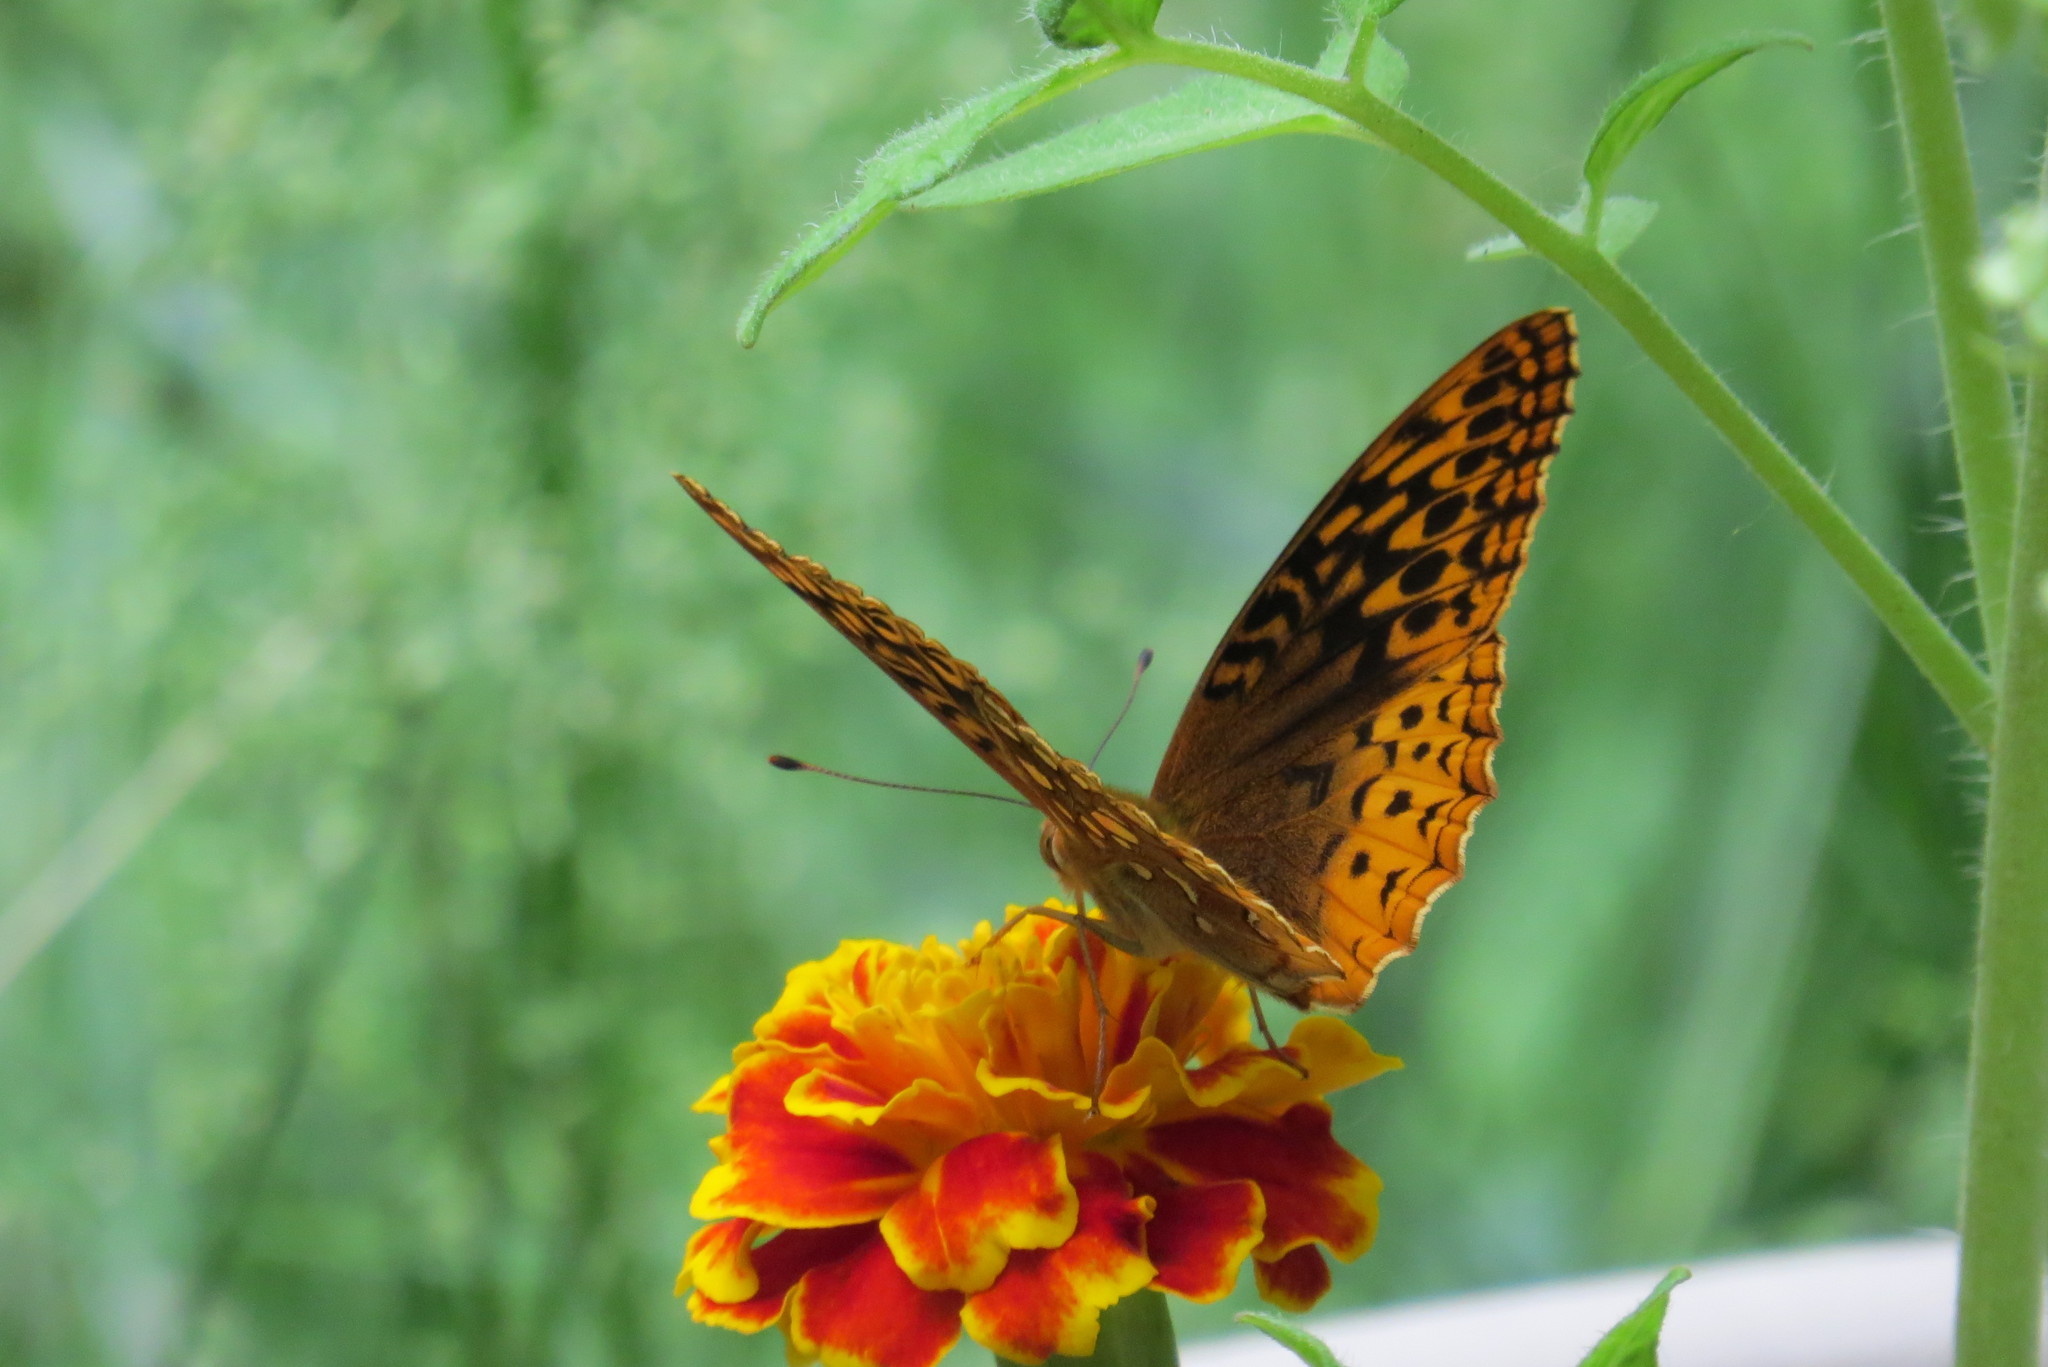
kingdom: Animalia
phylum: Arthropoda
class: Insecta
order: Lepidoptera
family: Nymphalidae
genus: Speyeria
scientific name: Speyeria cybele
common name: Great spangled fritillary
